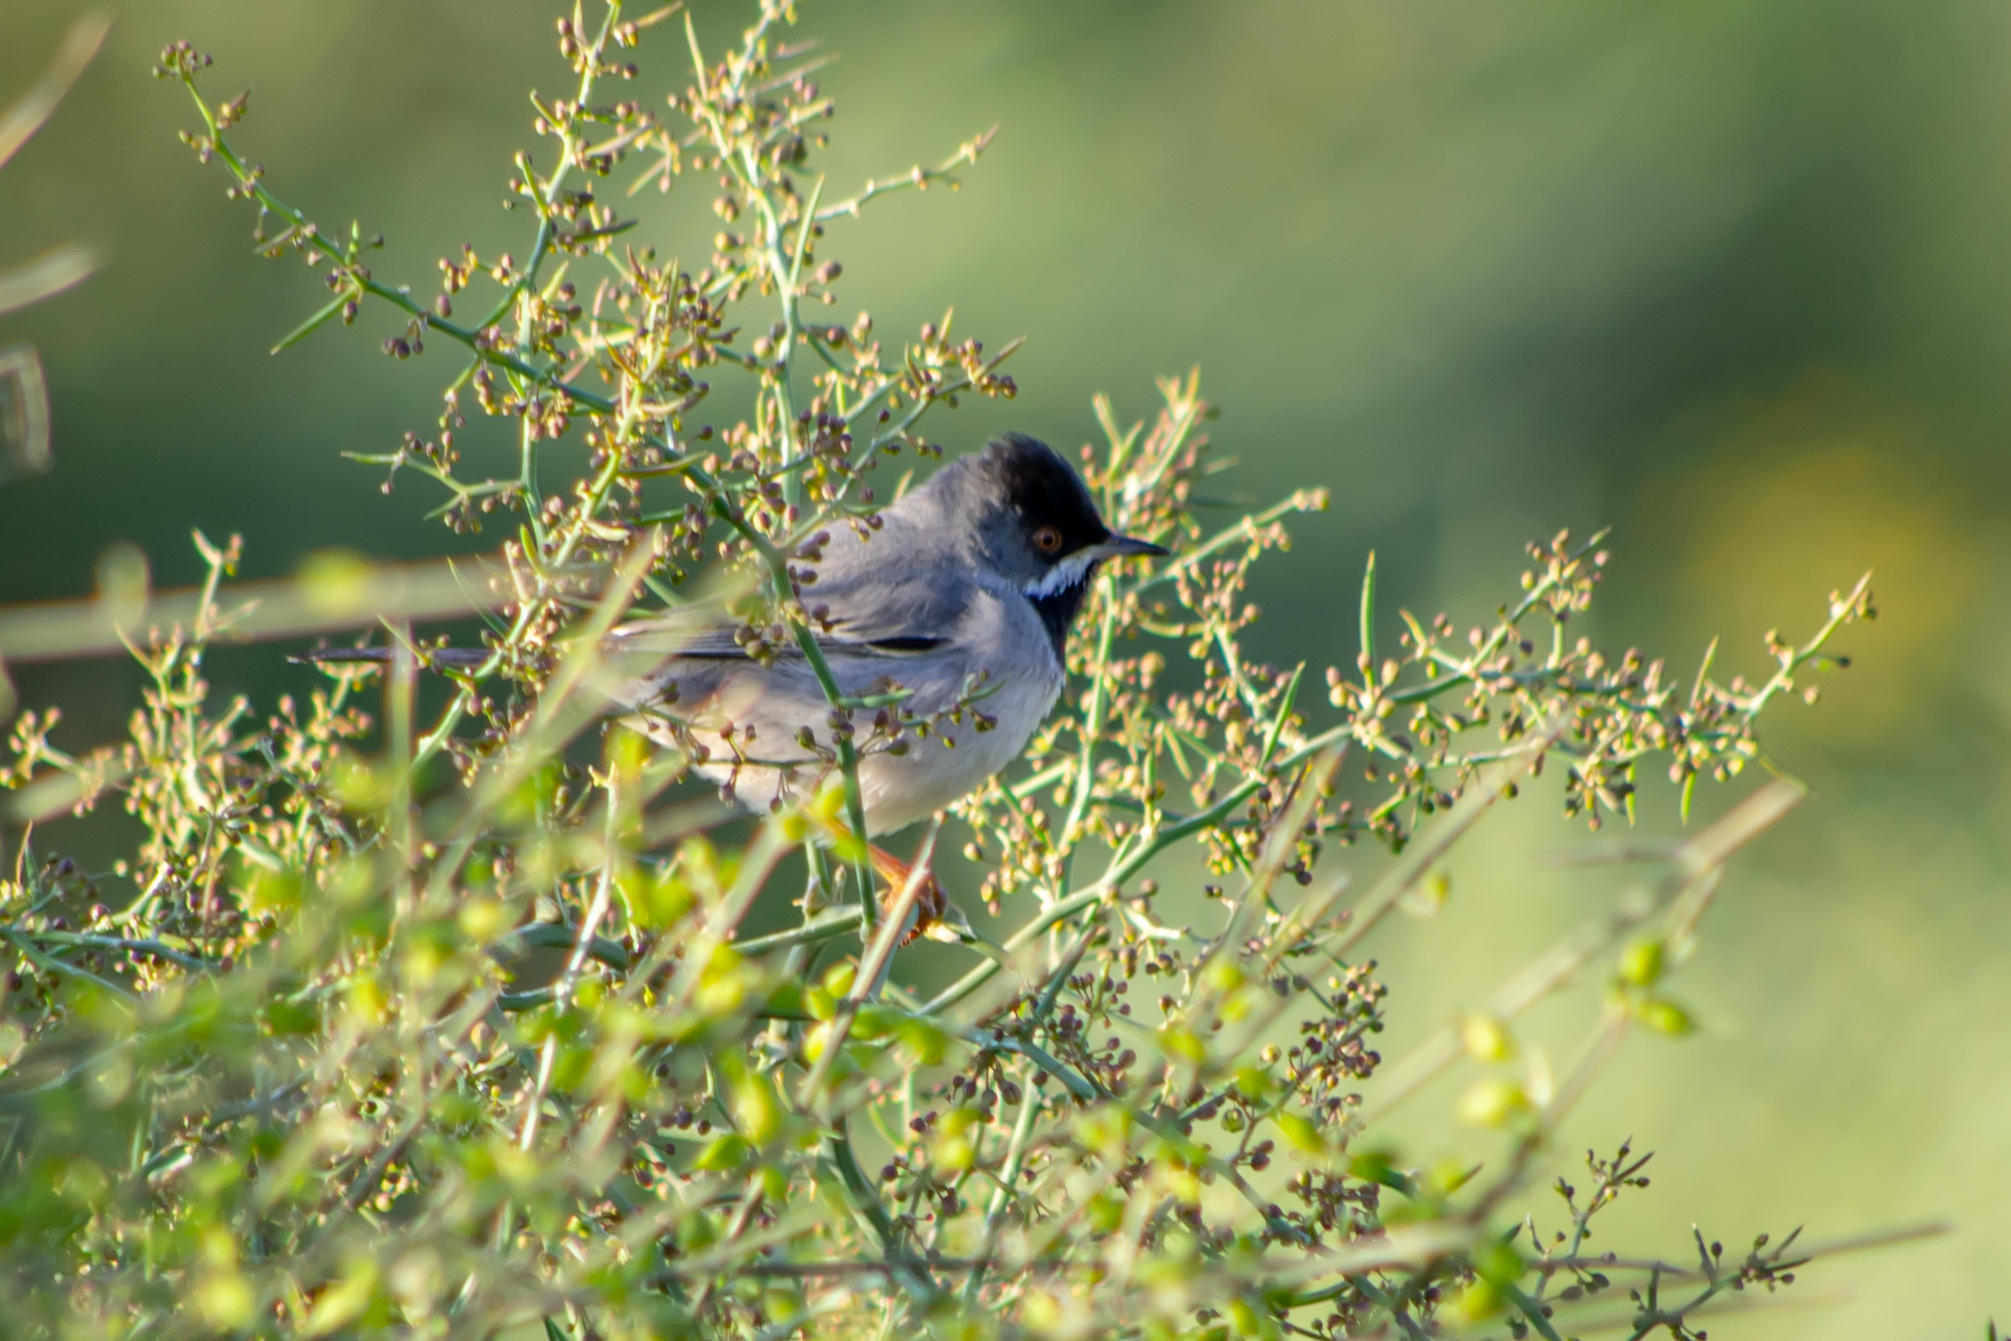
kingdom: Animalia
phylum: Chordata
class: Aves
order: Passeriformes
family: Sylviidae
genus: Sylvia
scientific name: Sylvia ruppeli
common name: Rüppell's warbler
